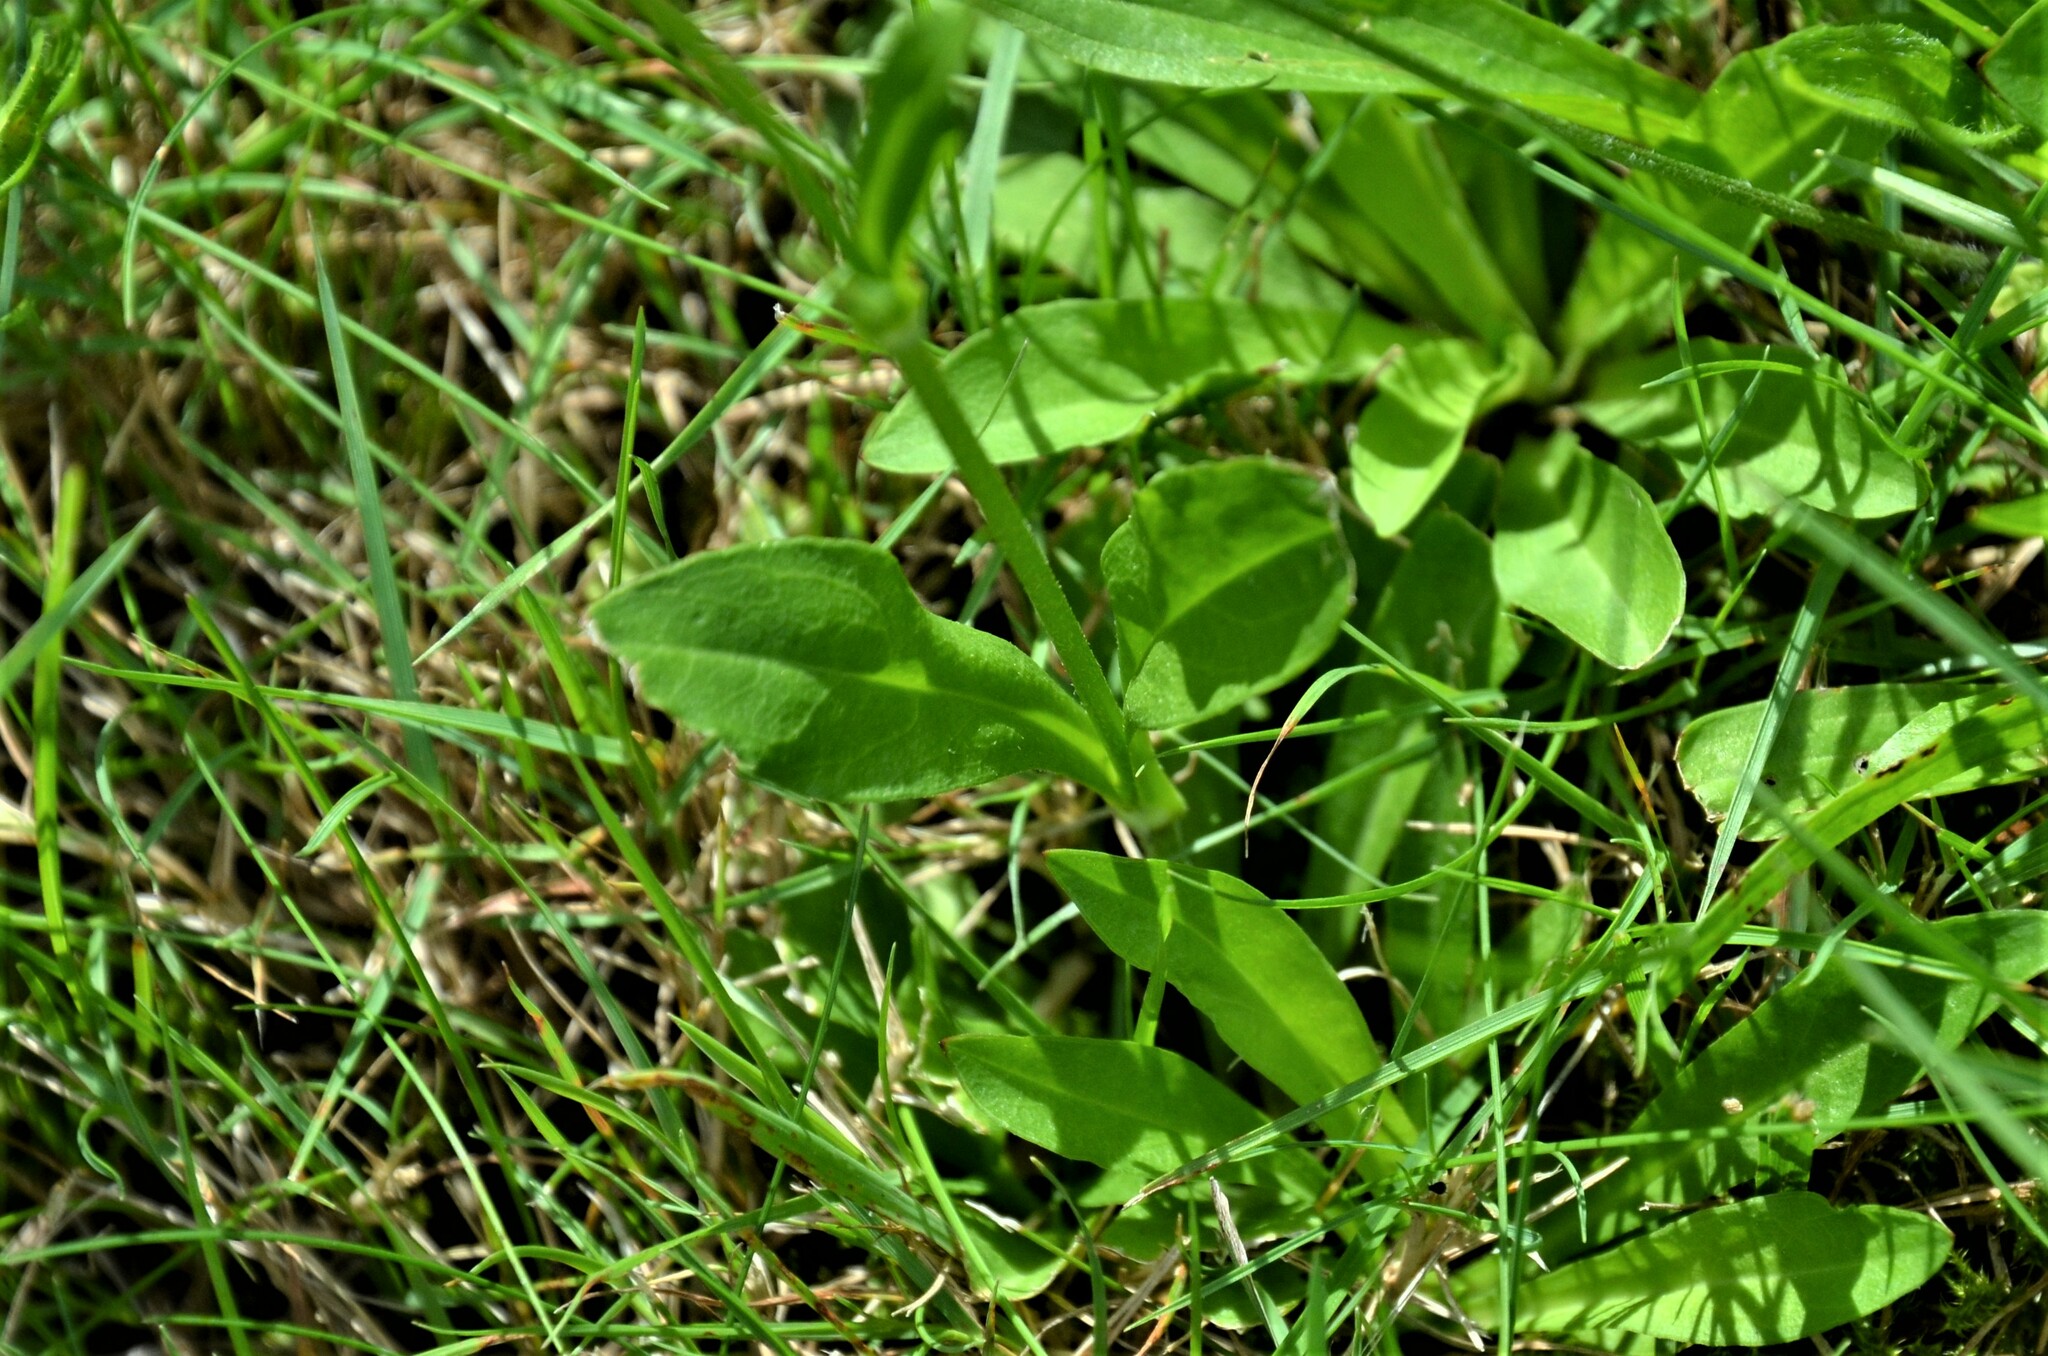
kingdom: Plantae
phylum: Tracheophyta
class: Magnoliopsida
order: Ericales
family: Primulaceae
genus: Lysimachia
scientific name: Lysimachia vulgaris
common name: Yellow loosestrife
